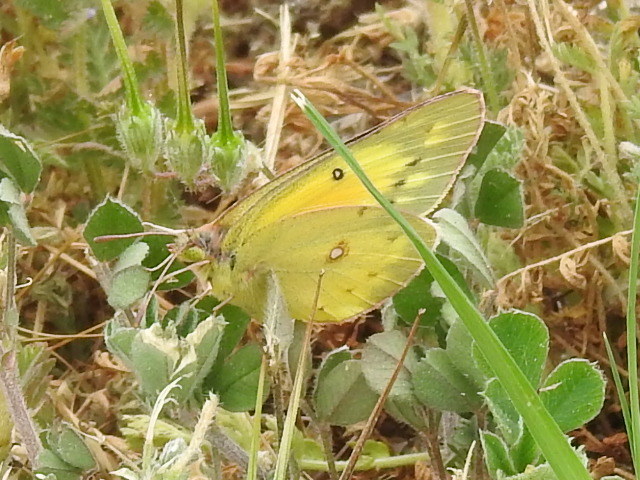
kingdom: Animalia
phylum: Arthropoda
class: Insecta
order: Lepidoptera
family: Pieridae
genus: Colias
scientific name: Colias eurytheme
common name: Alfalfa butterfly
